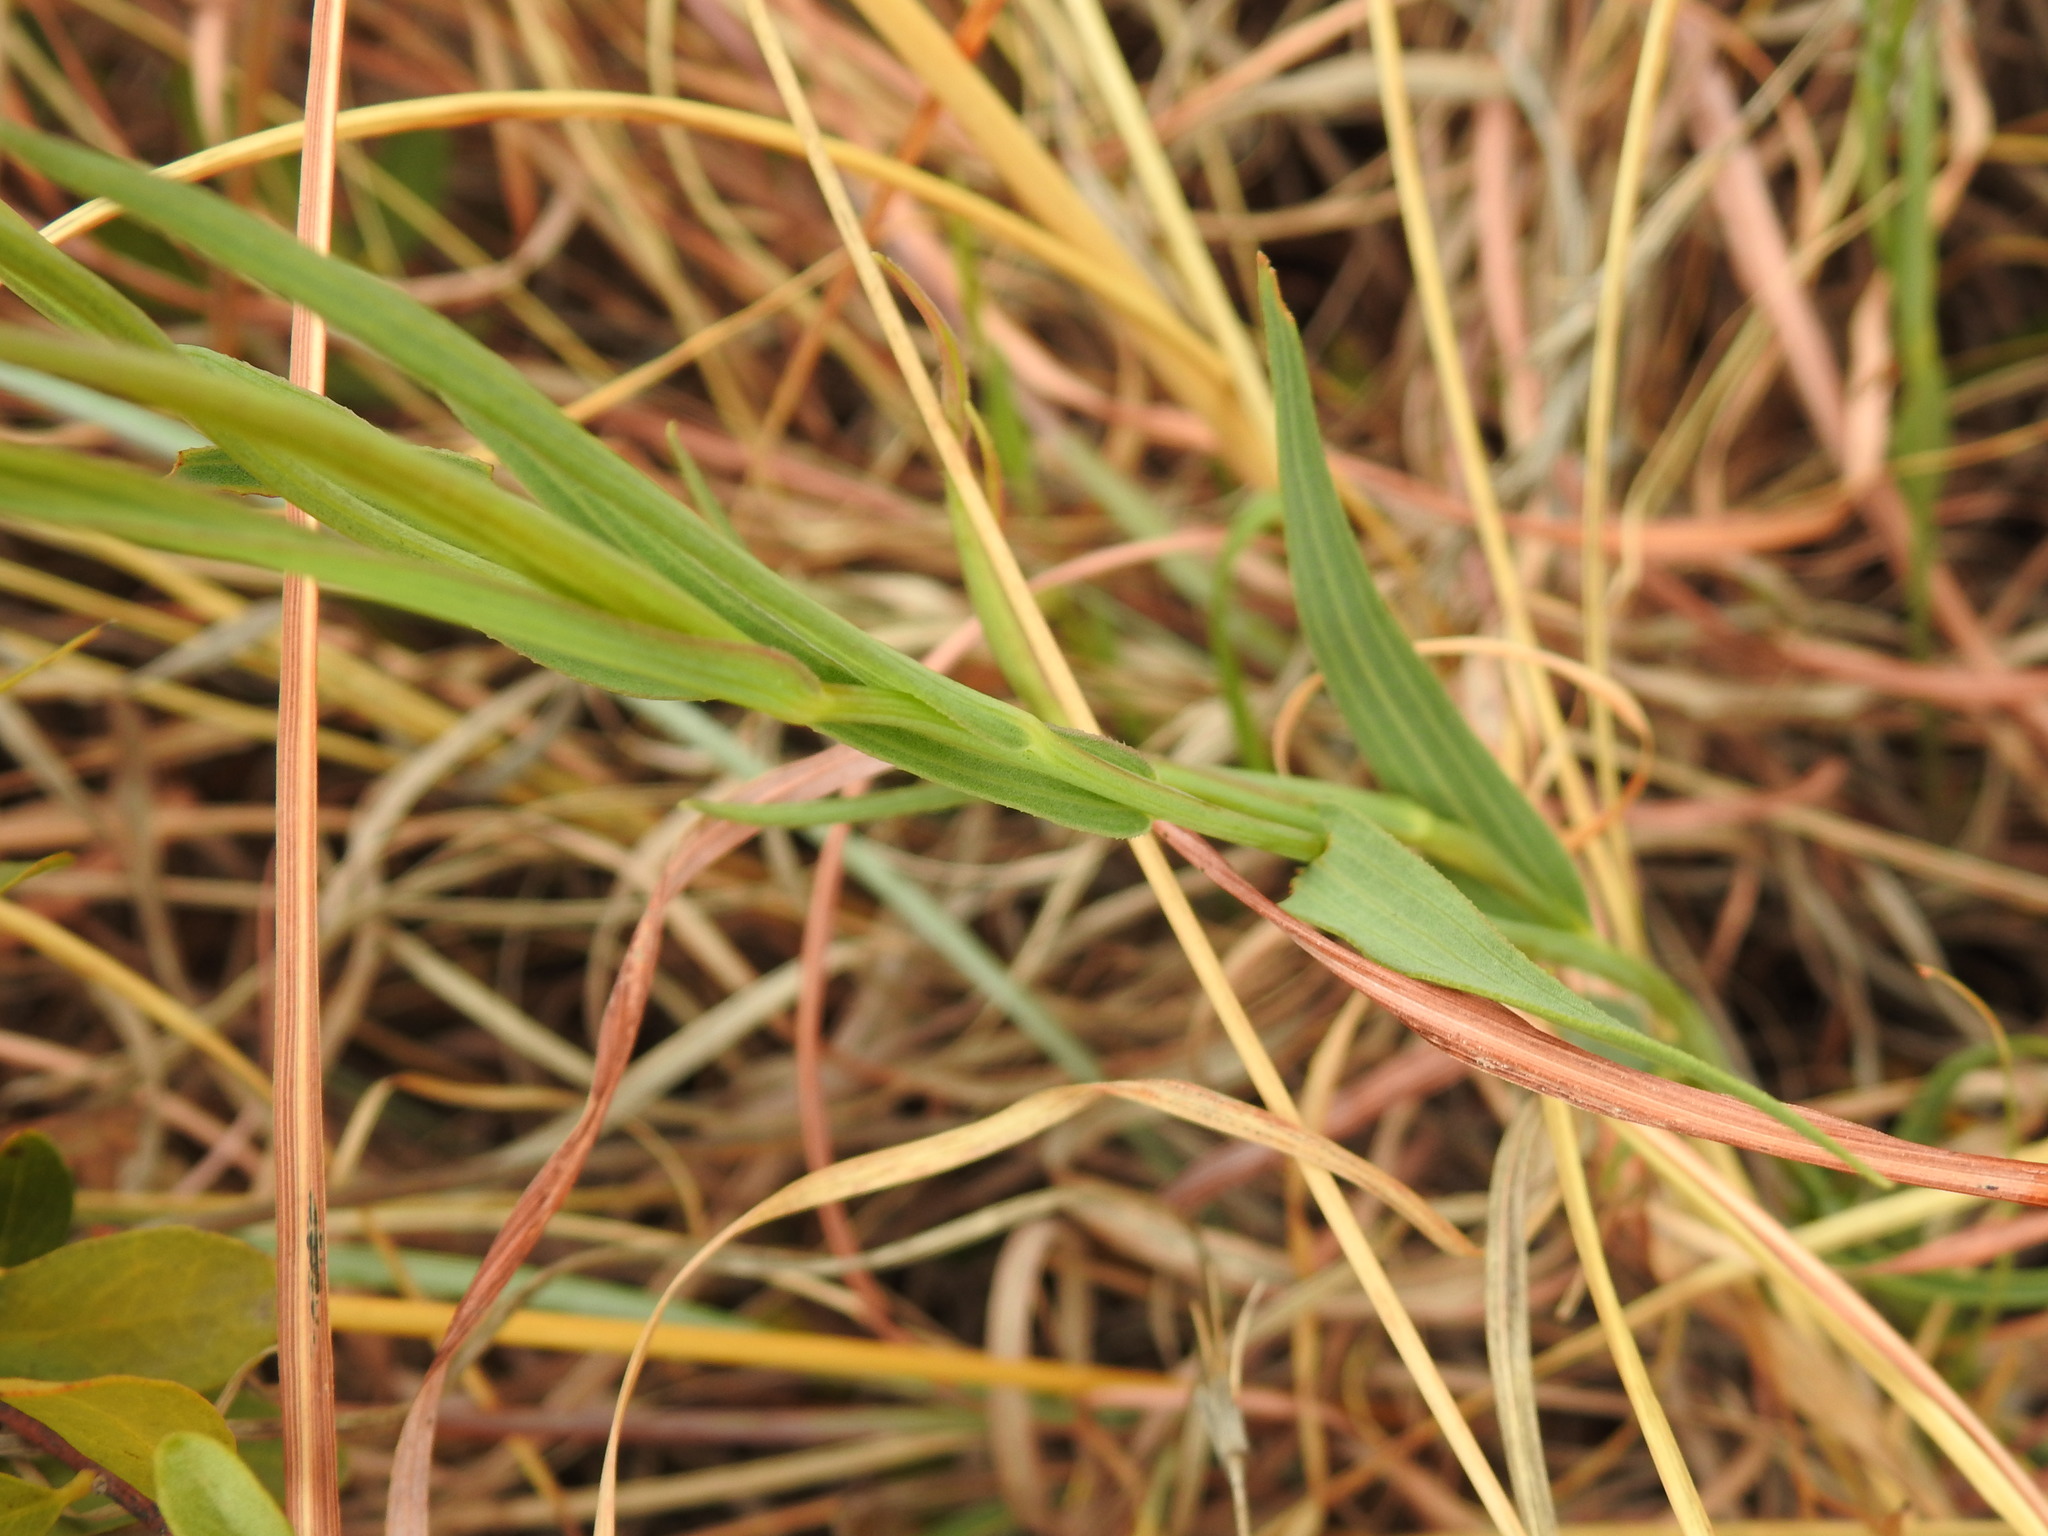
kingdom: Plantae
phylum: Tracheophyta
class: Magnoliopsida
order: Asterales
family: Asteraceae
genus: Afroaster
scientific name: Afroaster serrulatus
